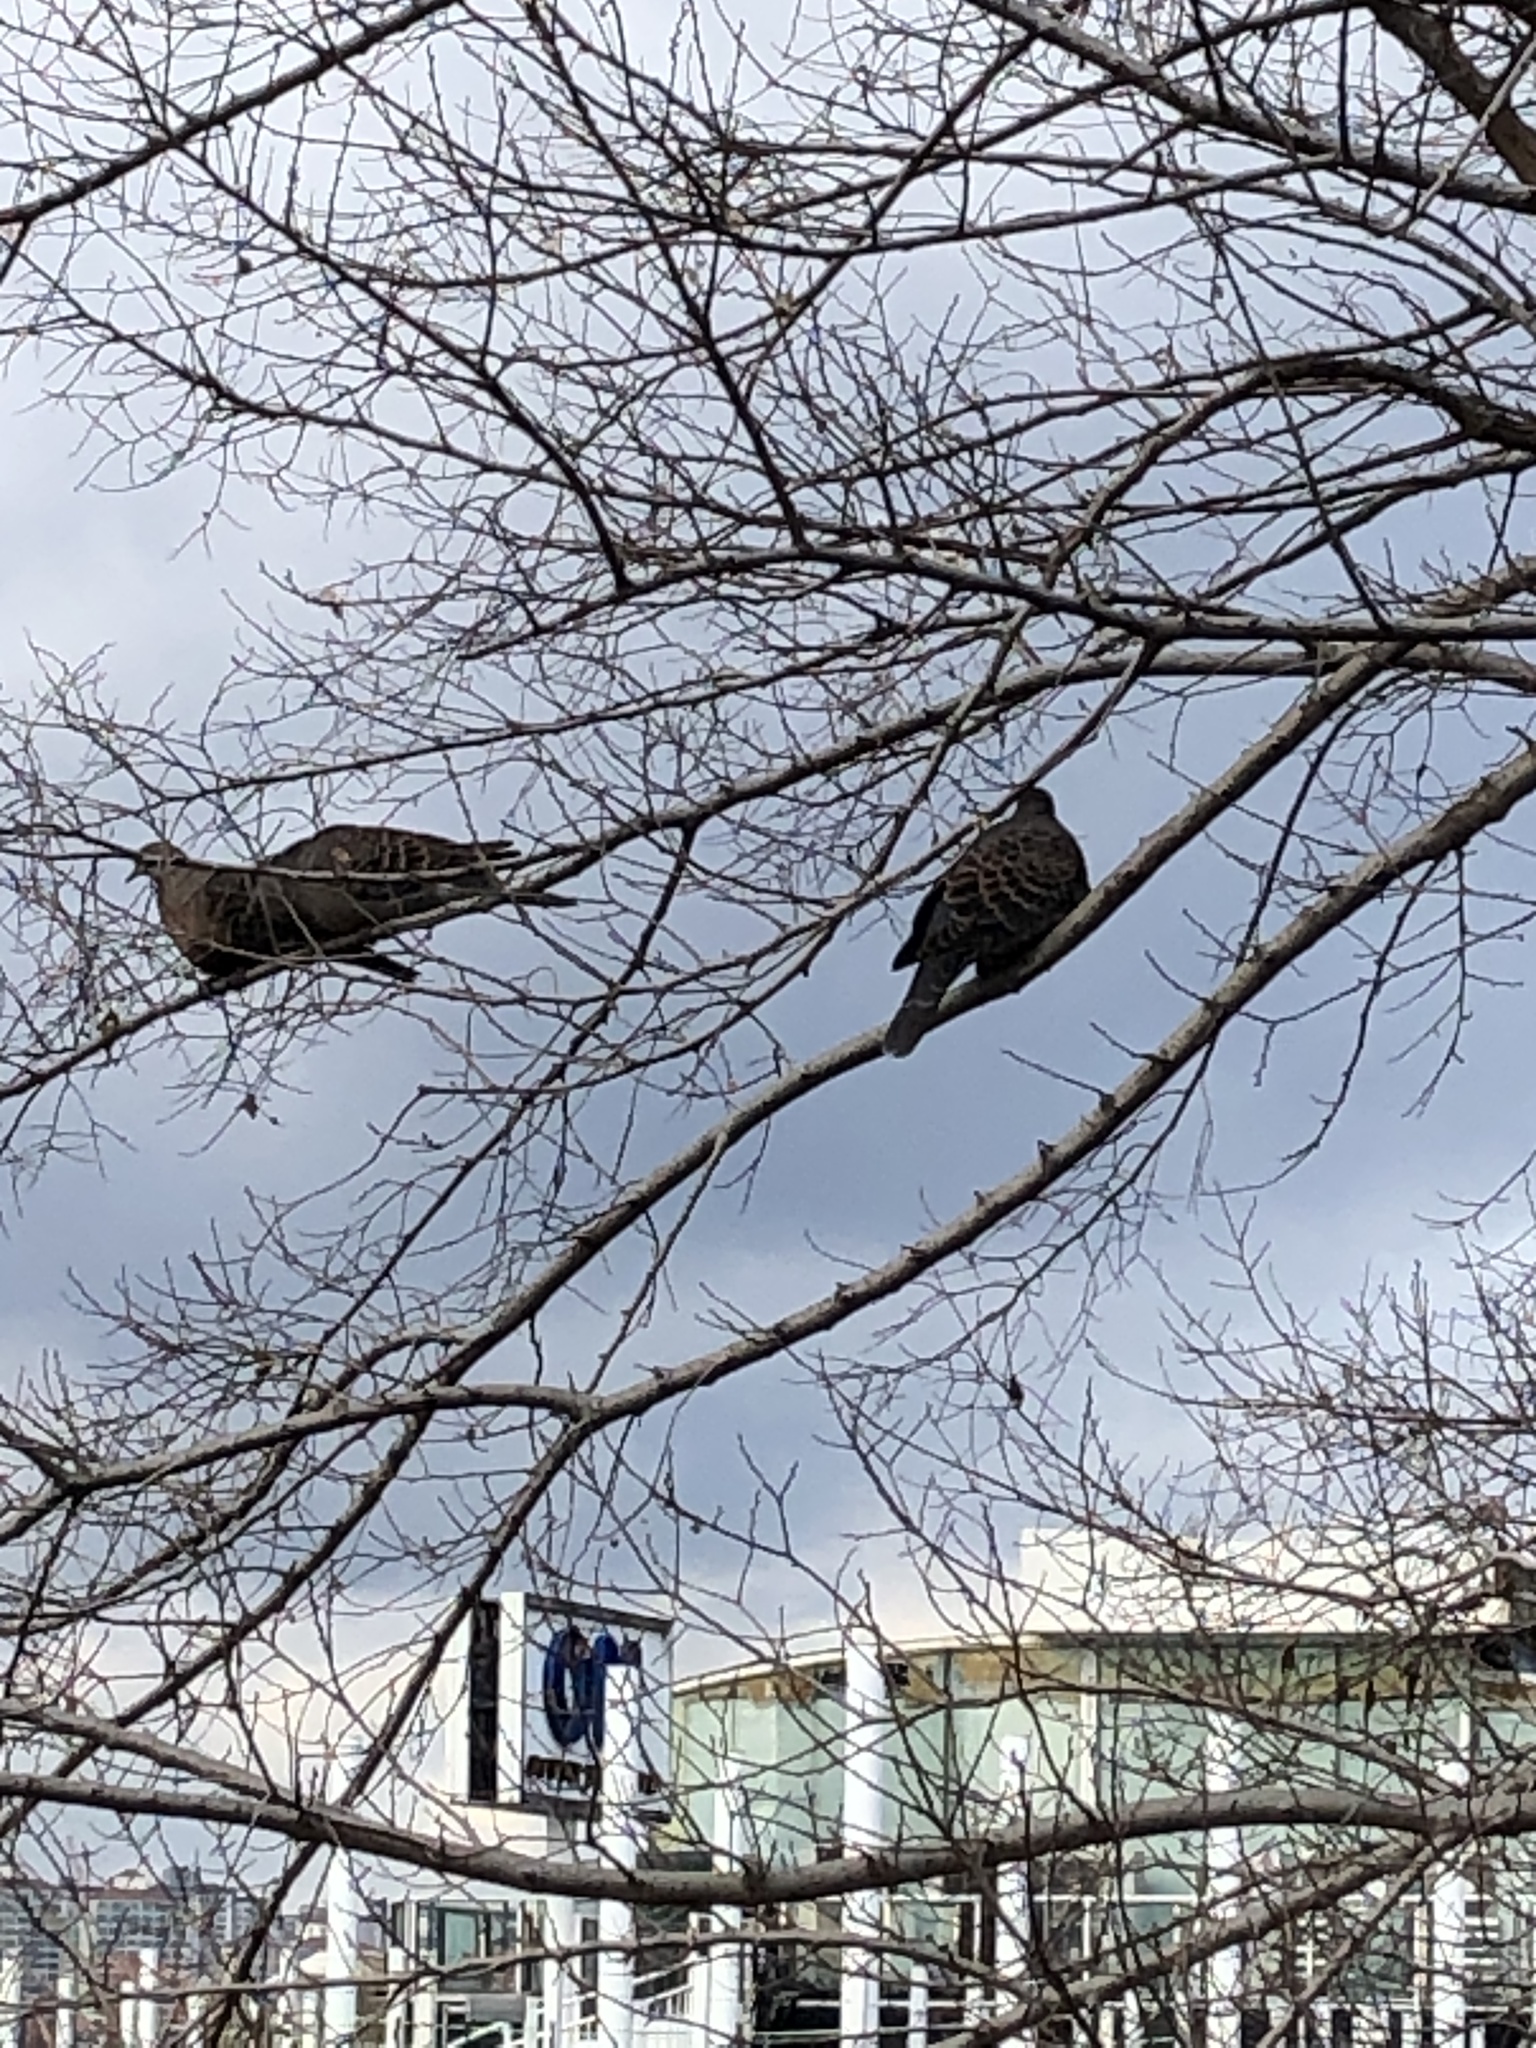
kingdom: Animalia
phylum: Chordata
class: Aves
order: Columbiformes
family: Columbidae
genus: Streptopelia
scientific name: Streptopelia orientalis
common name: Oriental turtle dove
